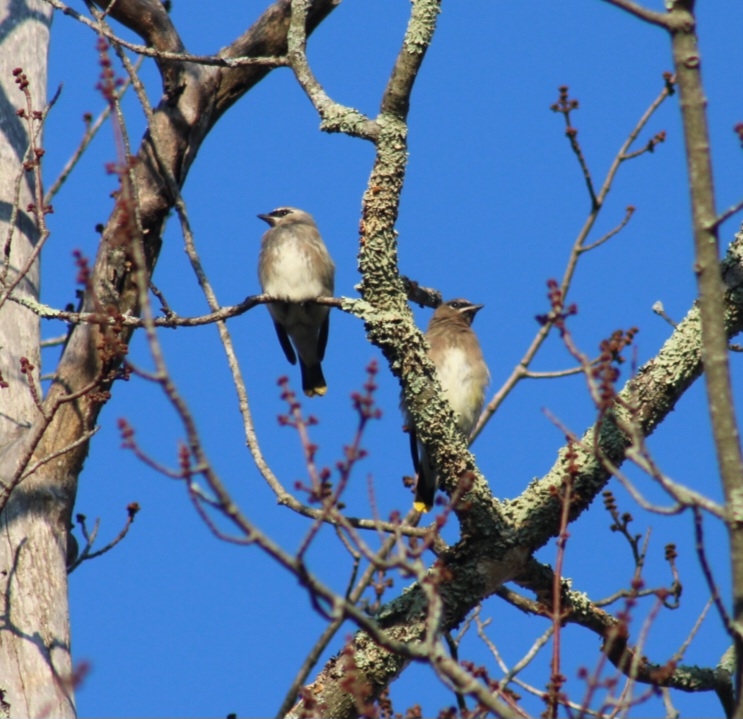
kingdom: Animalia
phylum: Chordata
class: Aves
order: Passeriformes
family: Bombycillidae
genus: Bombycilla
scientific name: Bombycilla cedrorum
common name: Cedar waxwing
